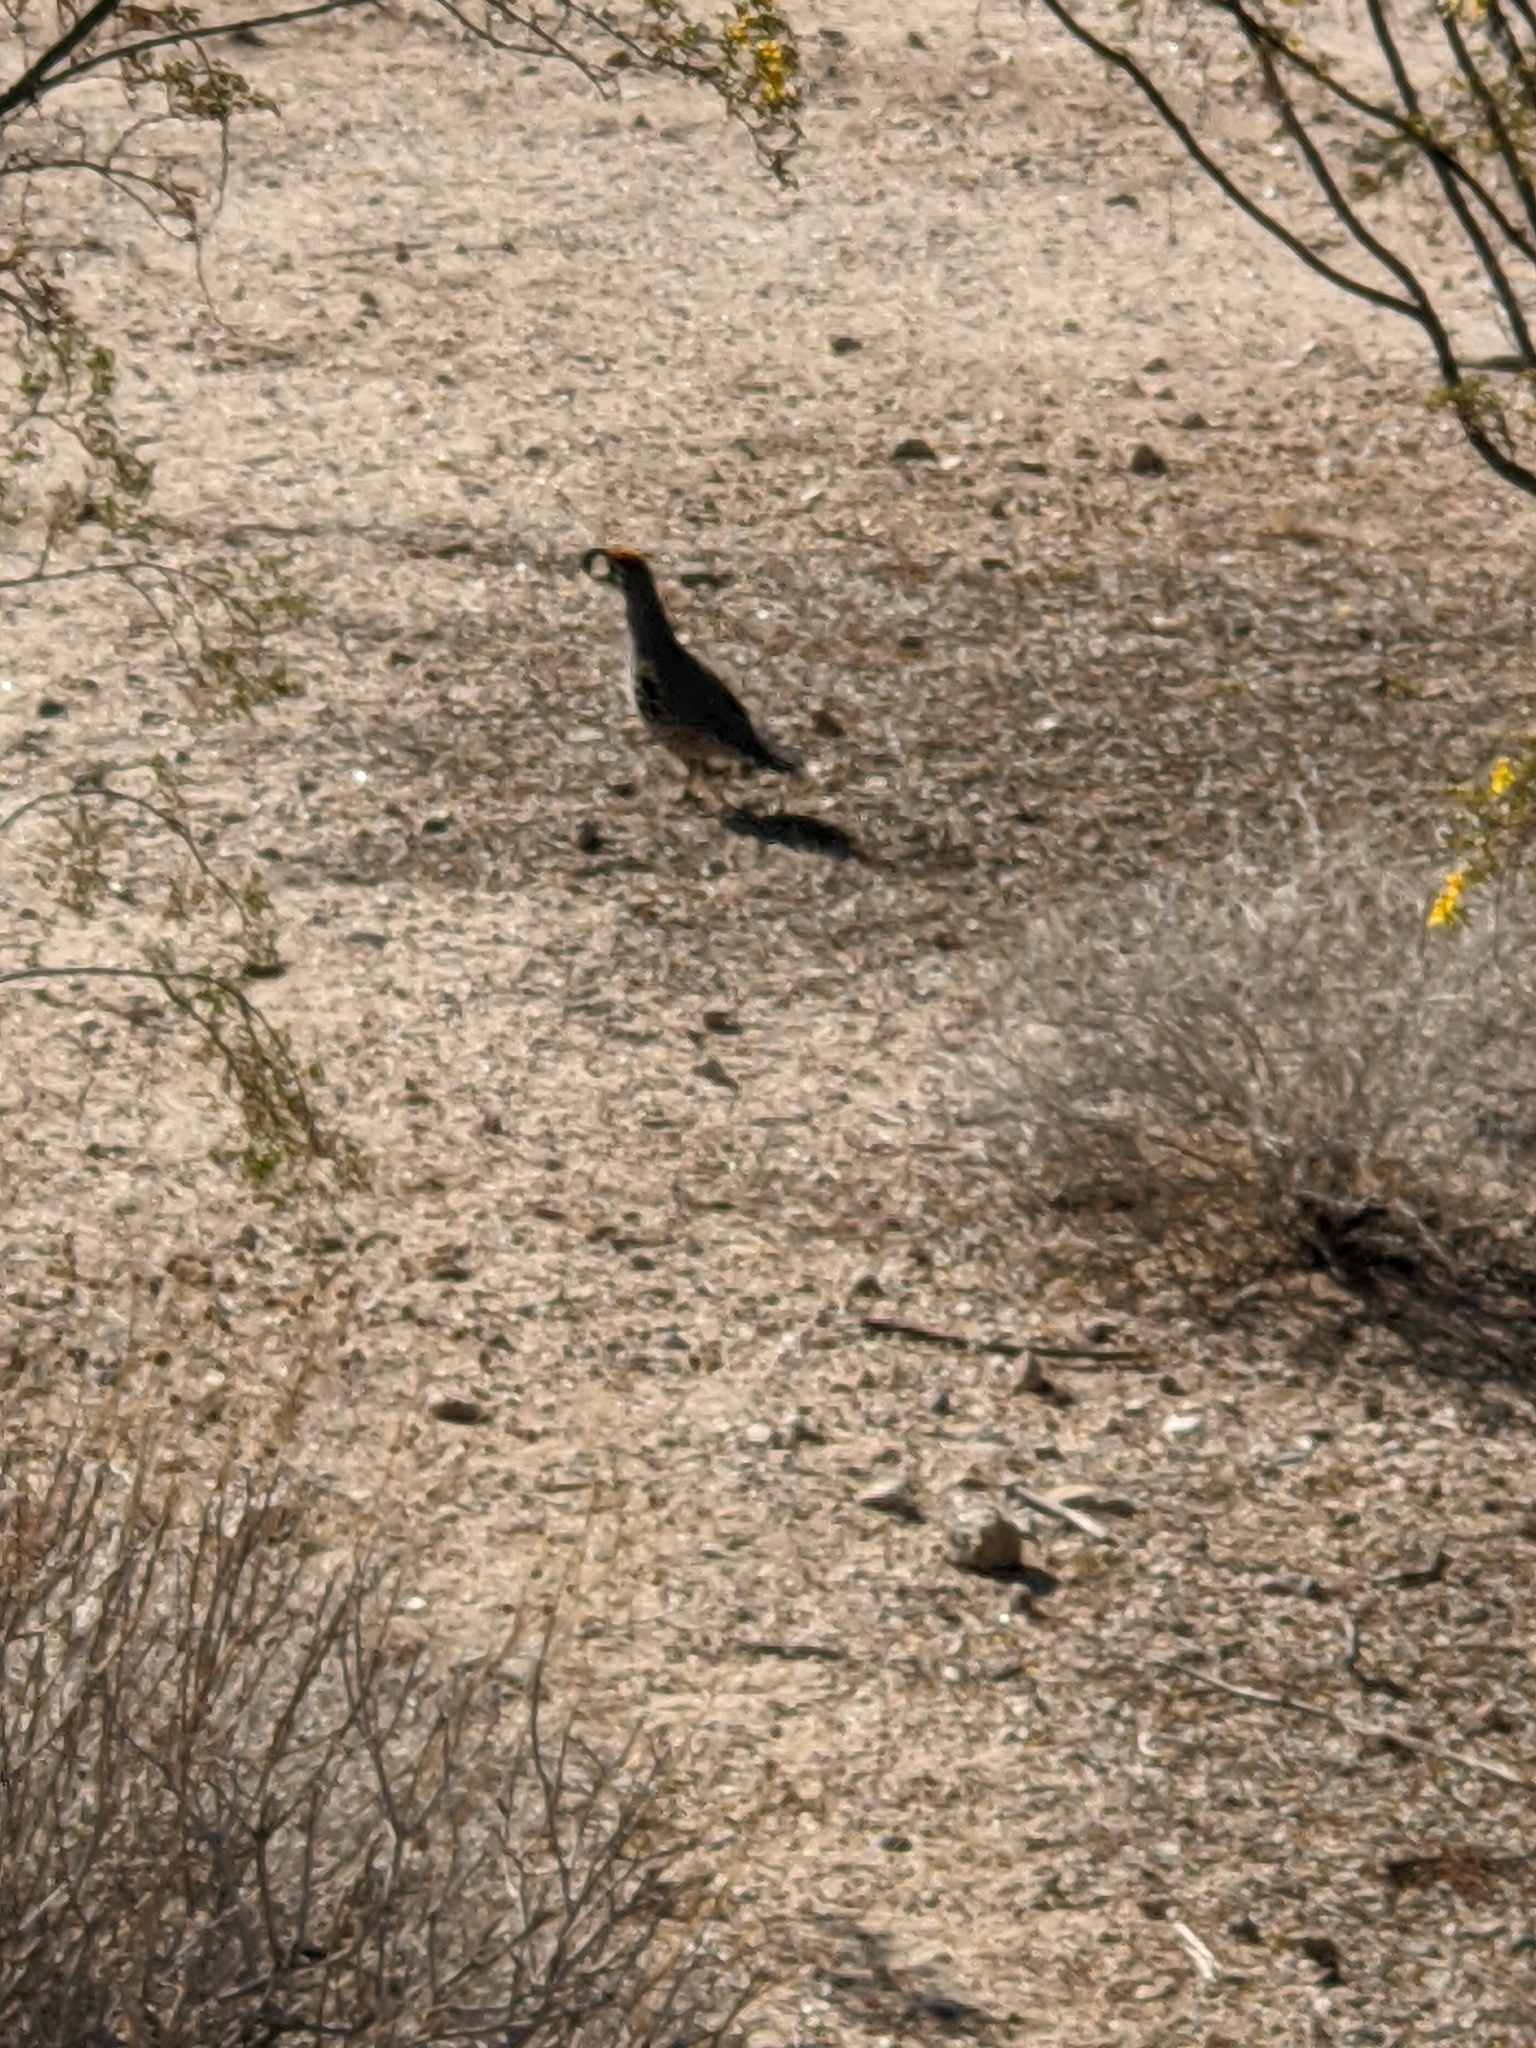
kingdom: Animalia
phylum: Chordata
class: Aves
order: Galliformes
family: Odontophoridae
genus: Callipepla
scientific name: Callipepla gambelii
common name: Gambel's quail
